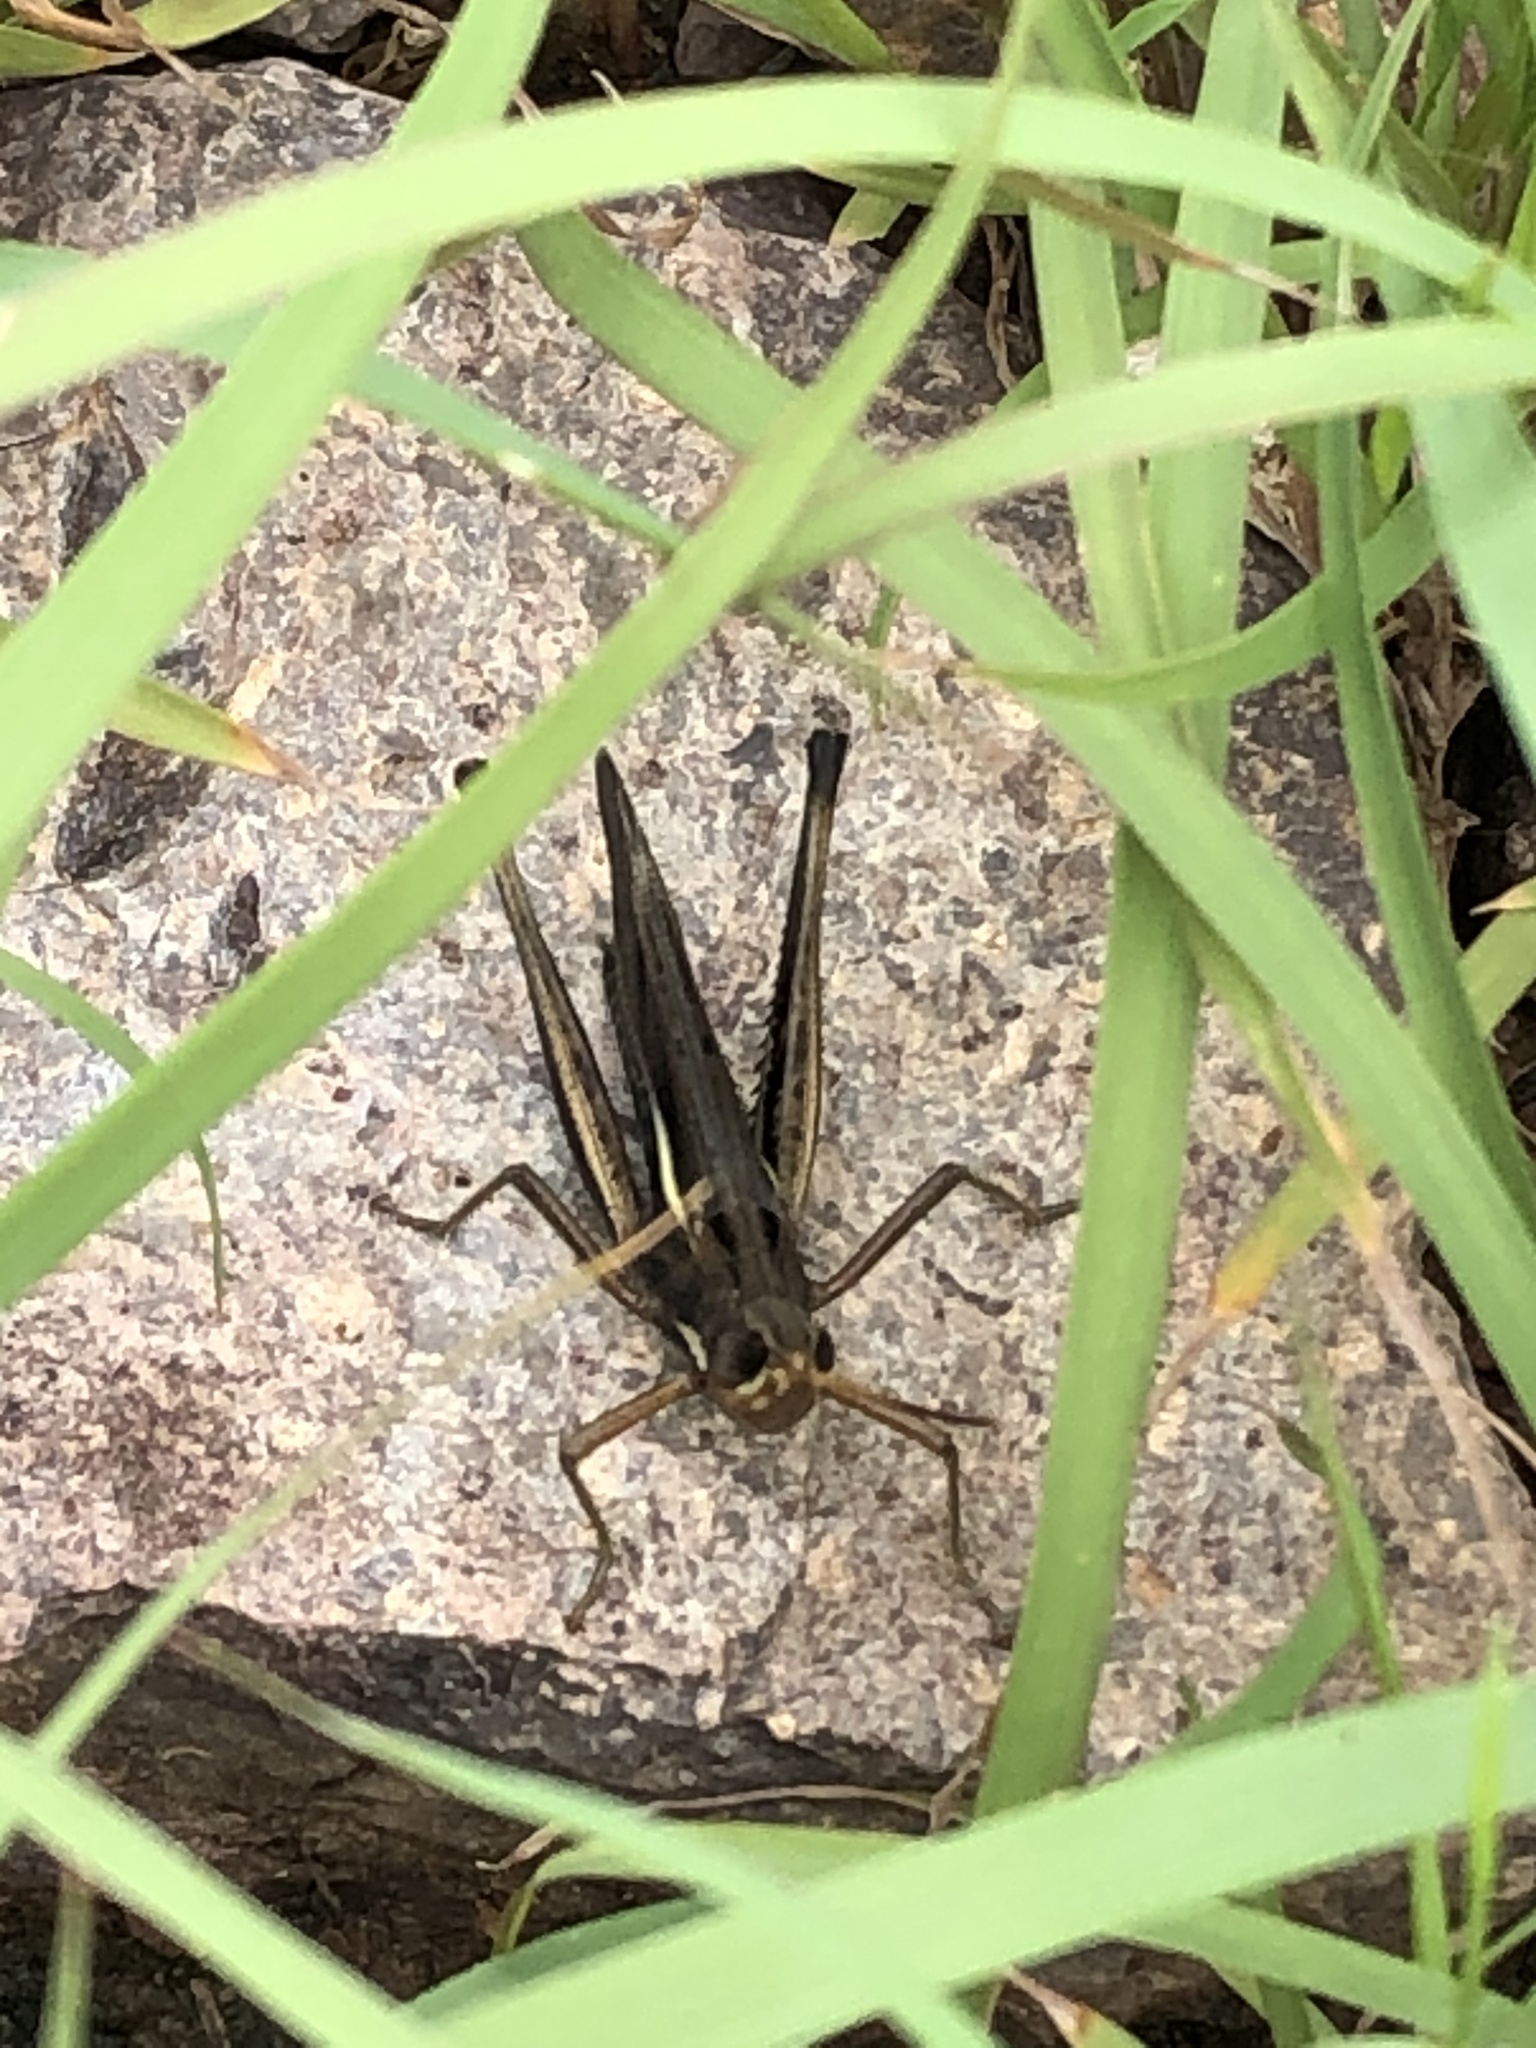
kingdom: Animalia
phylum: Arthropoda
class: Insecta
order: Orthoptera
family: Acrididae
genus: Syrbula
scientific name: Syrbula montezuma
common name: Montezuma's grasshopper
